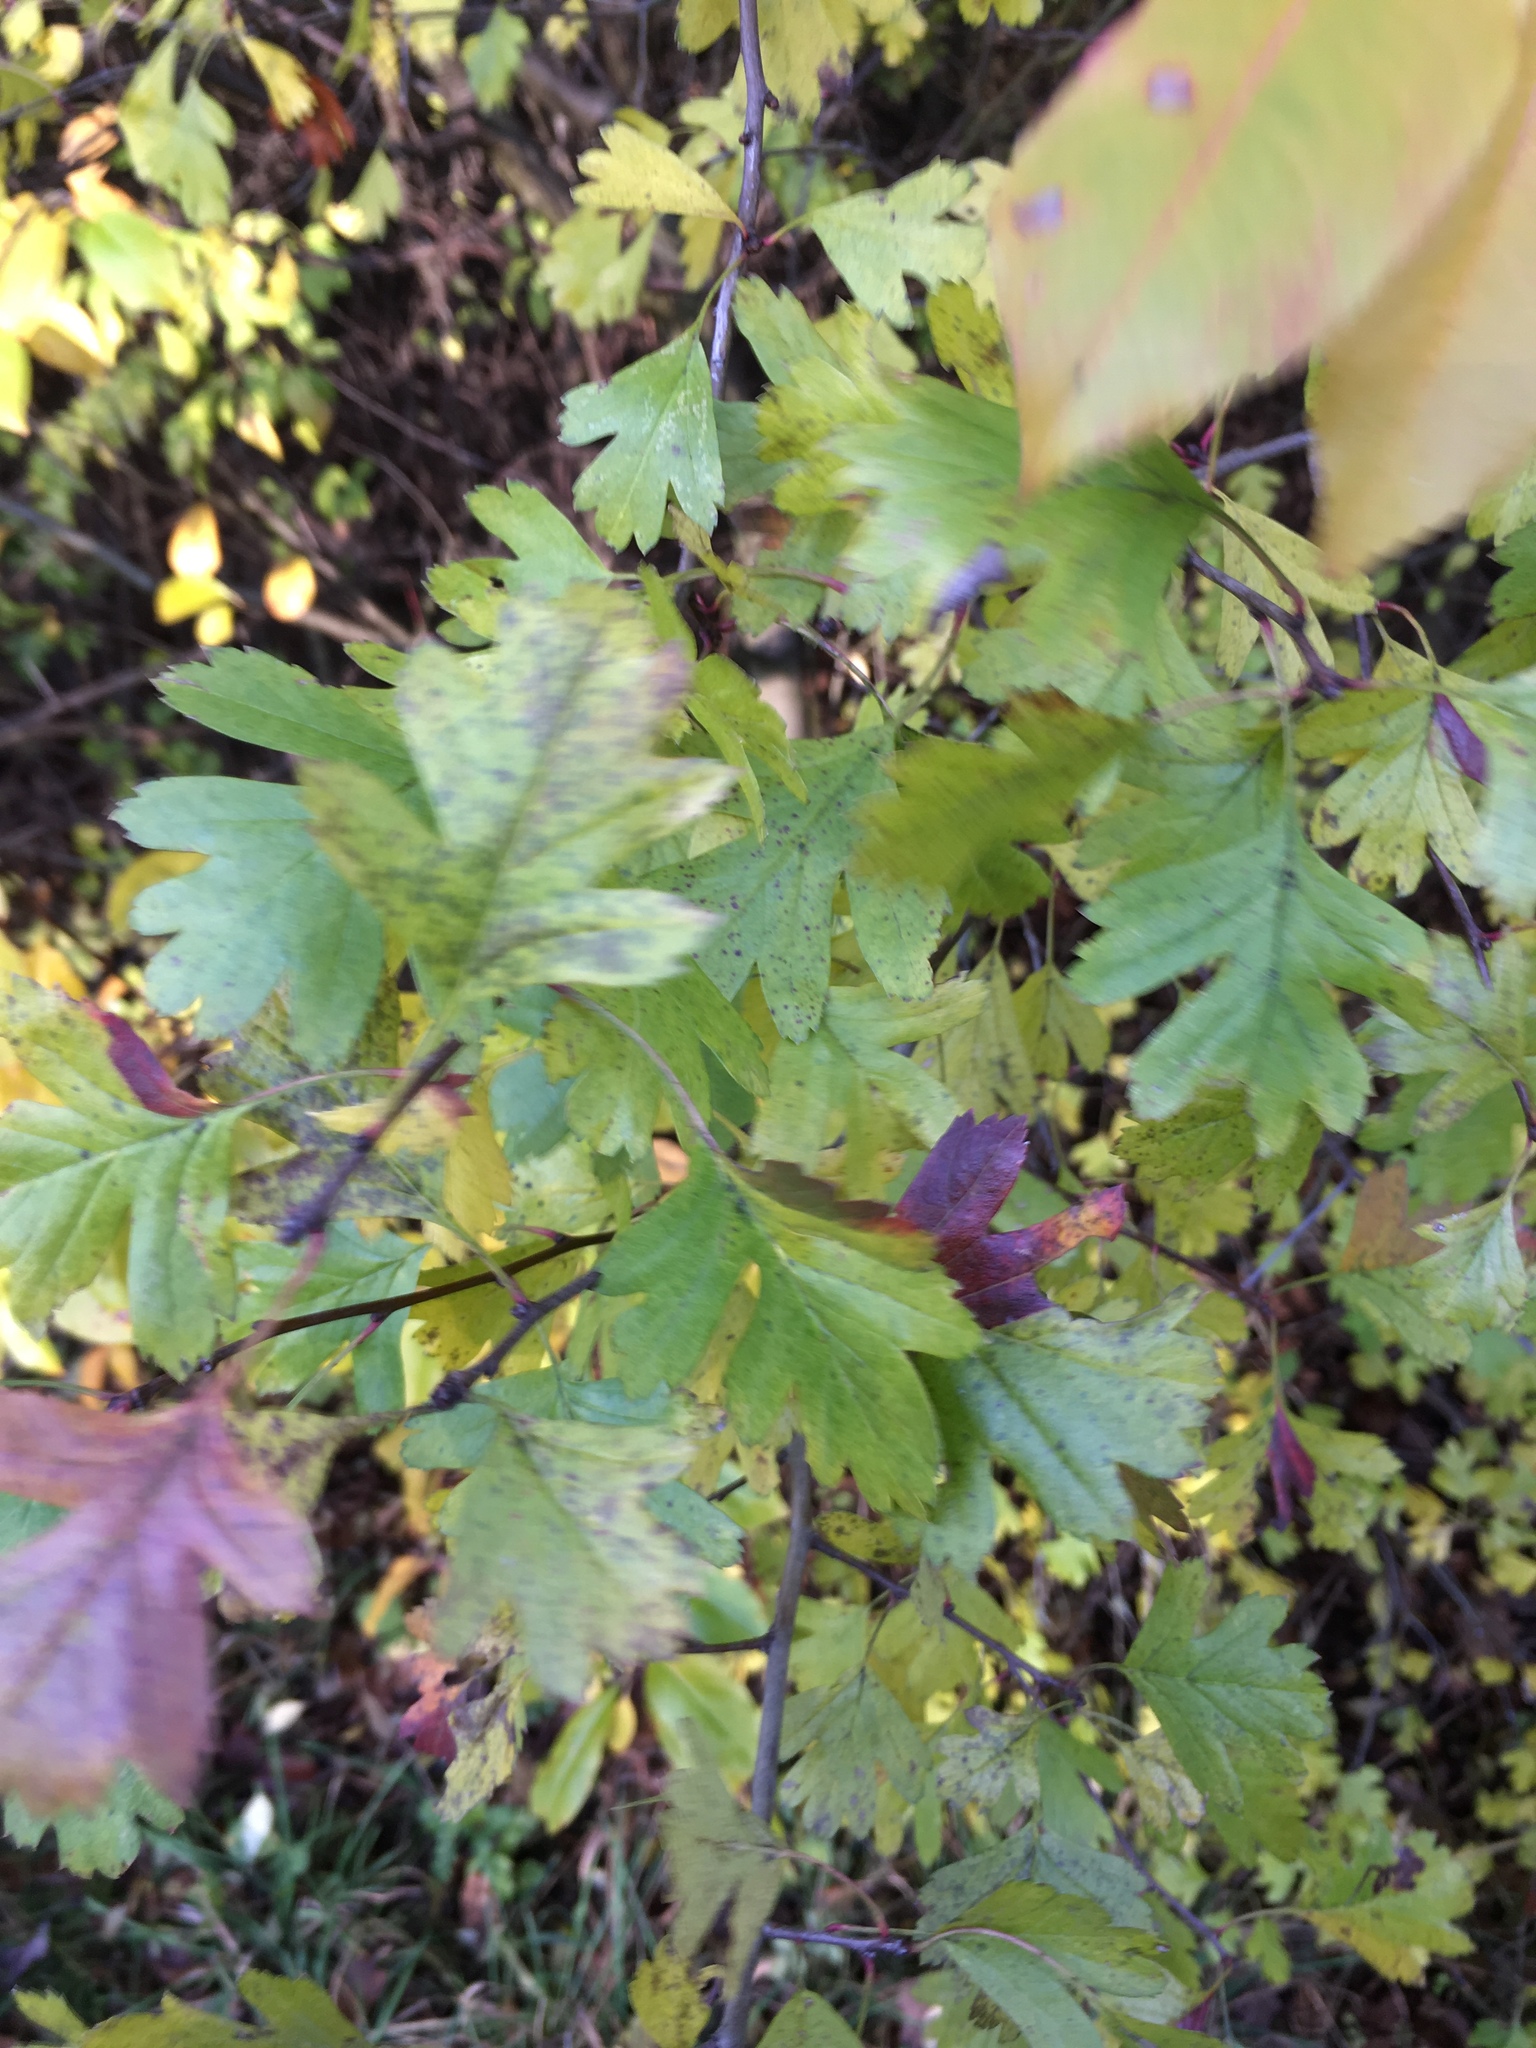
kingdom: Plantae
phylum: Tracheophyta
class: Magnoliopsida
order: Rosales
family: Rosaceae
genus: Crataegus
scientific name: Crataegus monogyna
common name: Hawthorn
